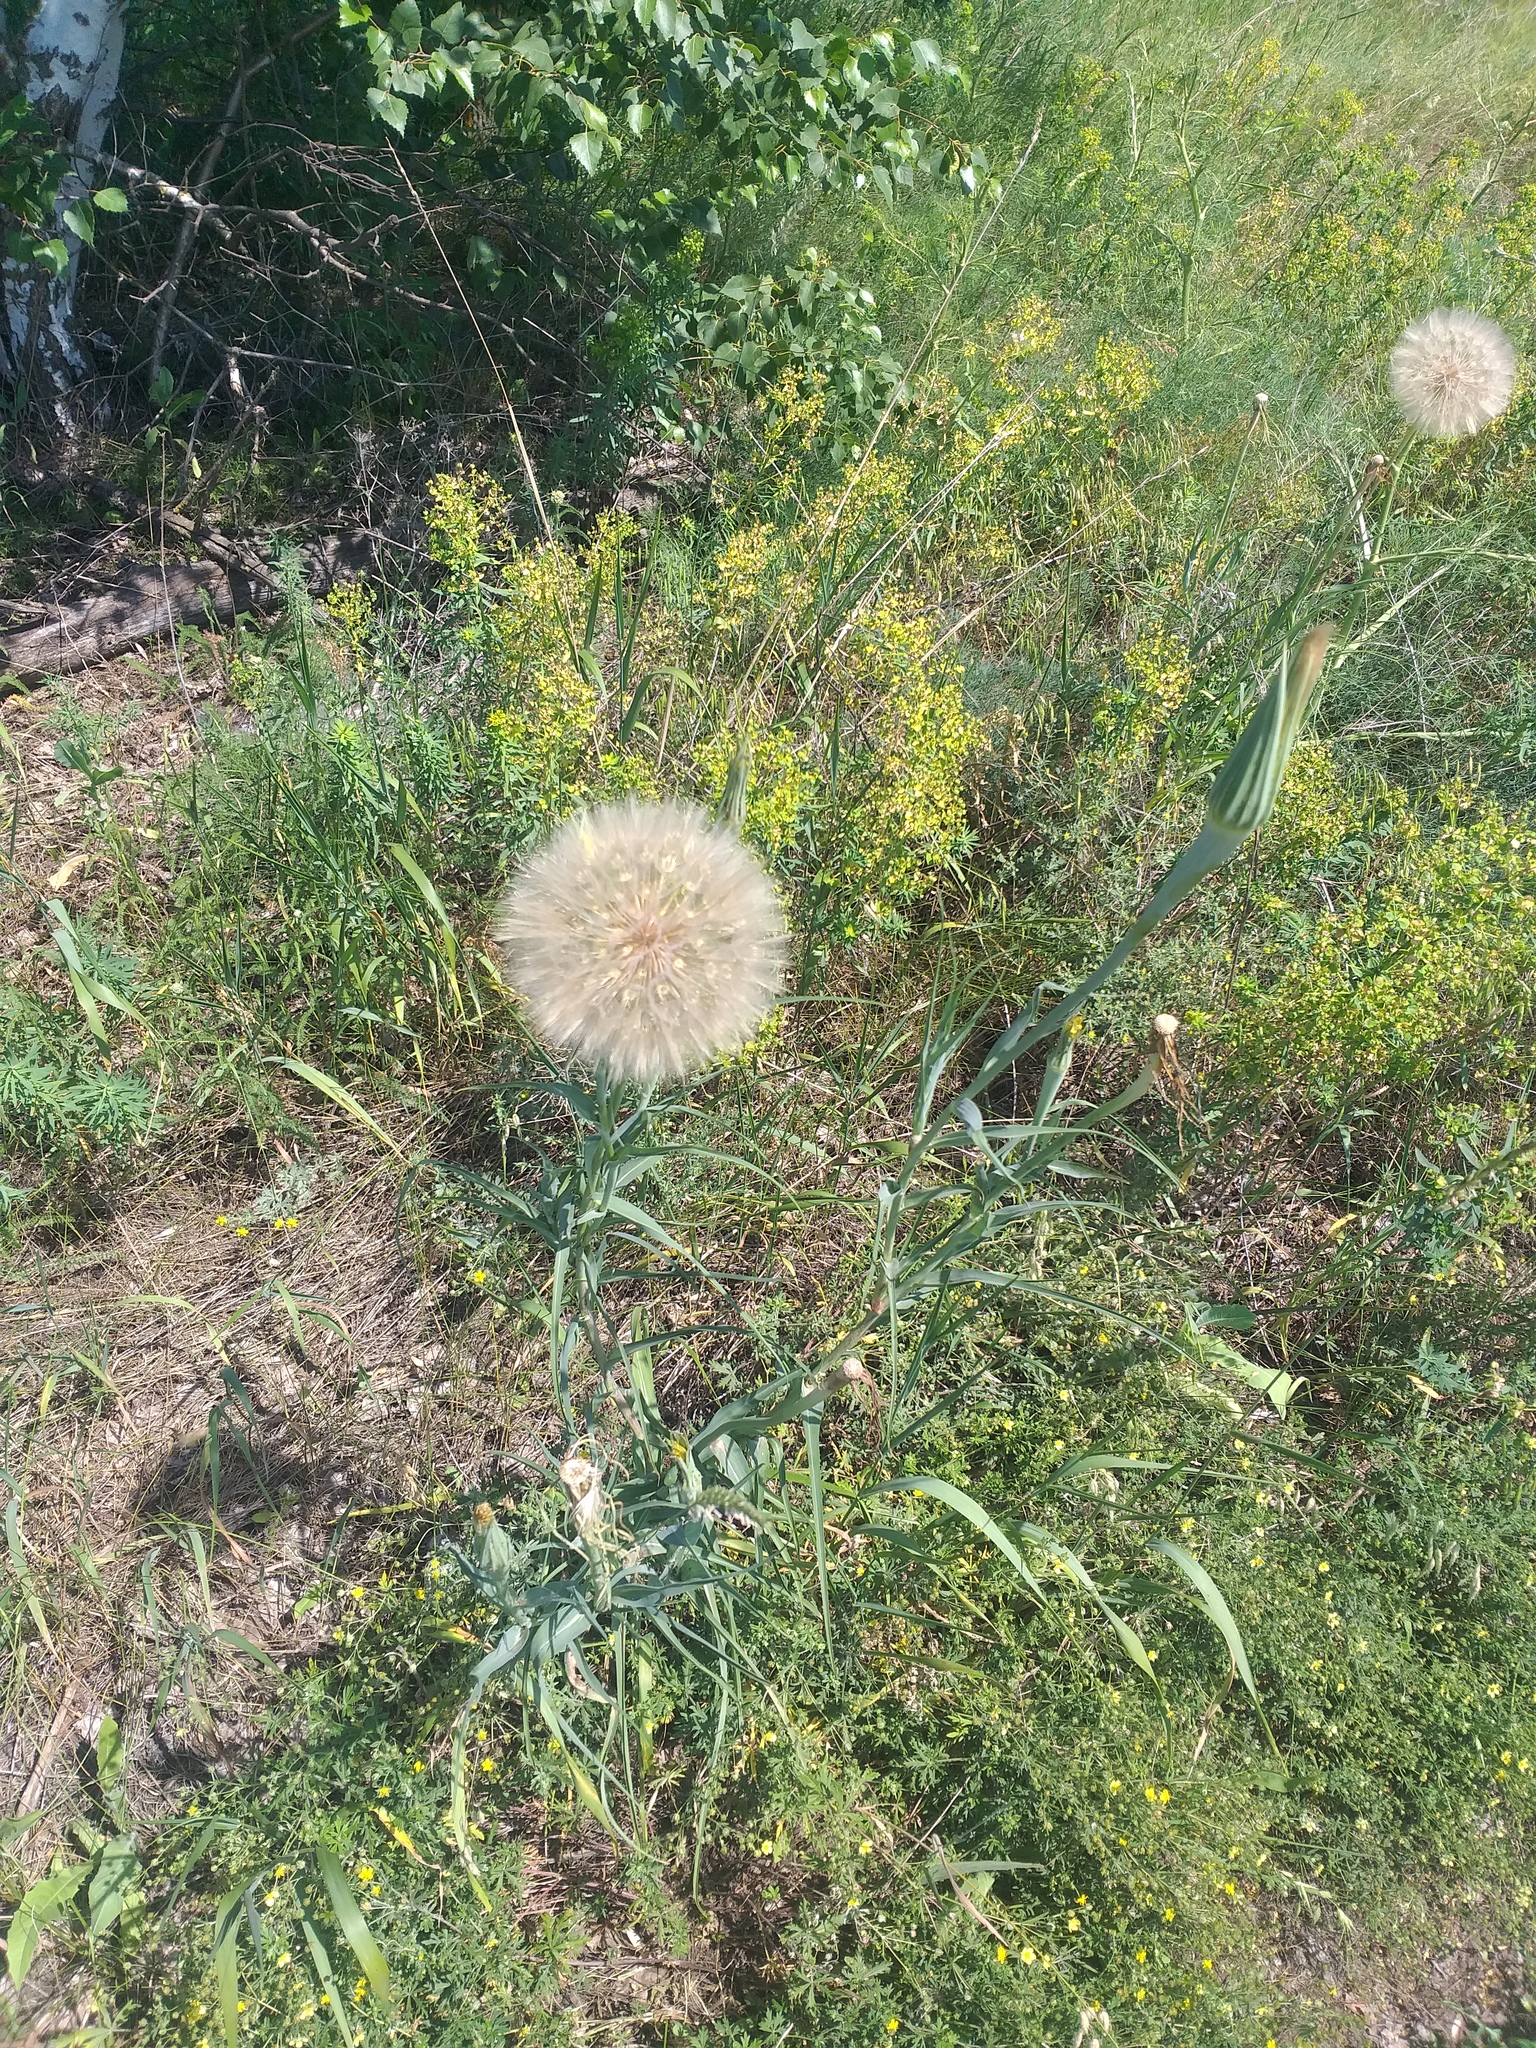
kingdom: Plantae
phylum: Tracheophyta
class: Magnoliopsida
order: Asterales
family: Asteraceae
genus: Tragopogon
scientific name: Tragopogon dubius
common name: Yellow salsify
